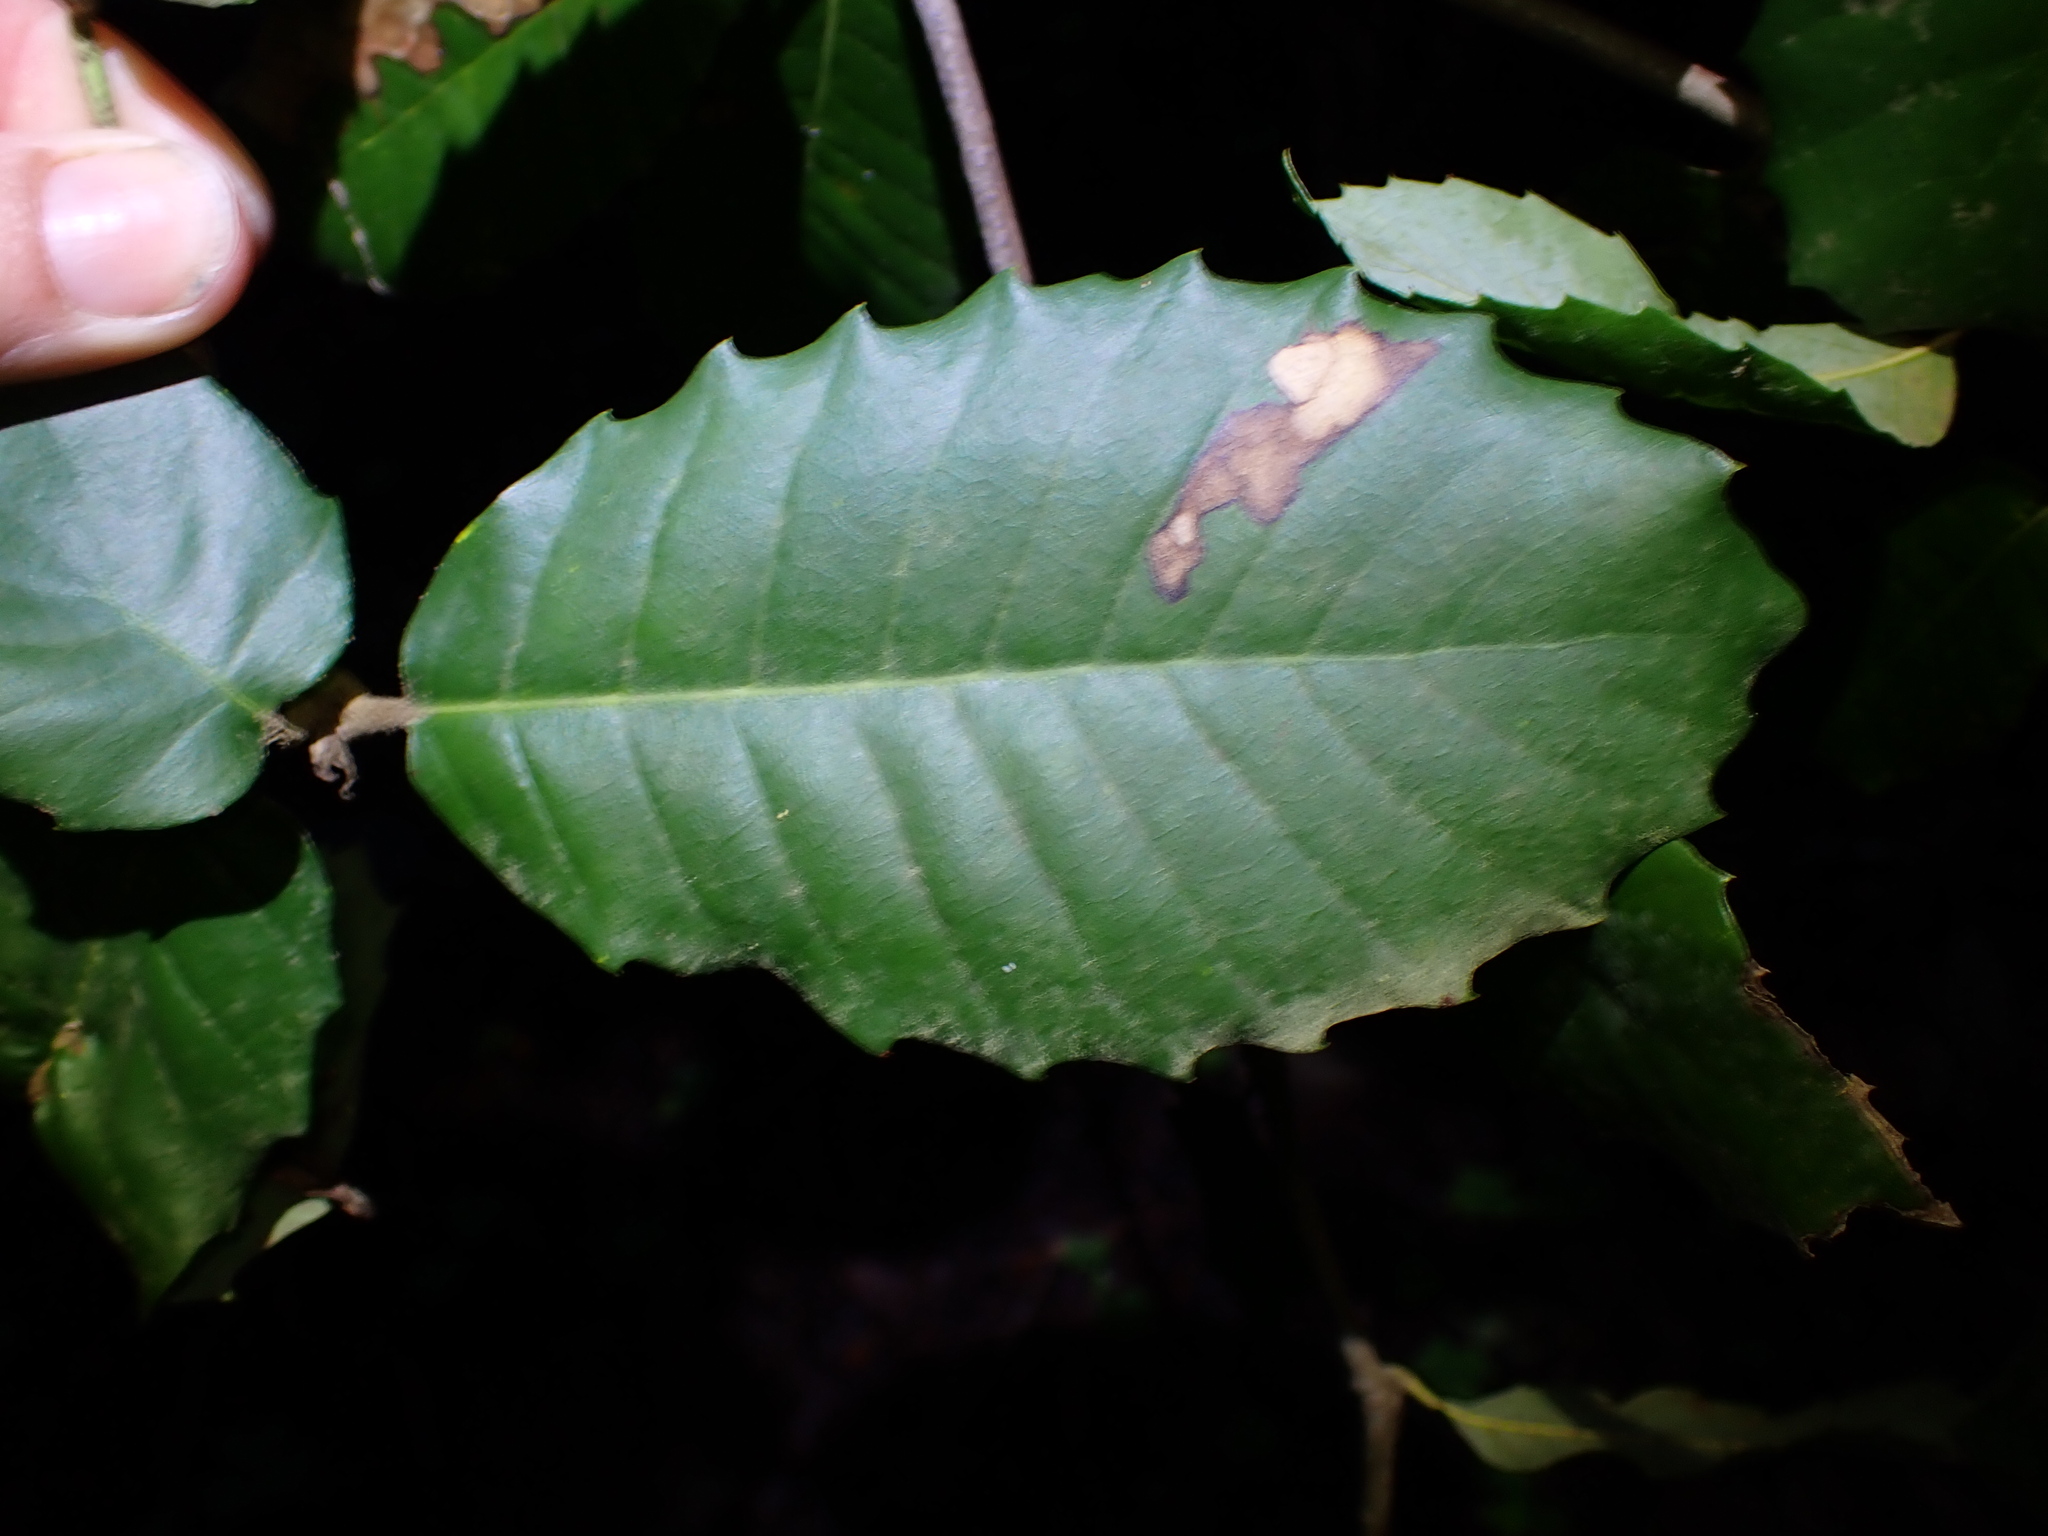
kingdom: Plantae
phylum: Tracheophyta
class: Magnoliopsida
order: Fagales
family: Fagaceae
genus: Notholithocarpus
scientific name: Notholithocarpus densiflorus
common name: Tan bark oak
